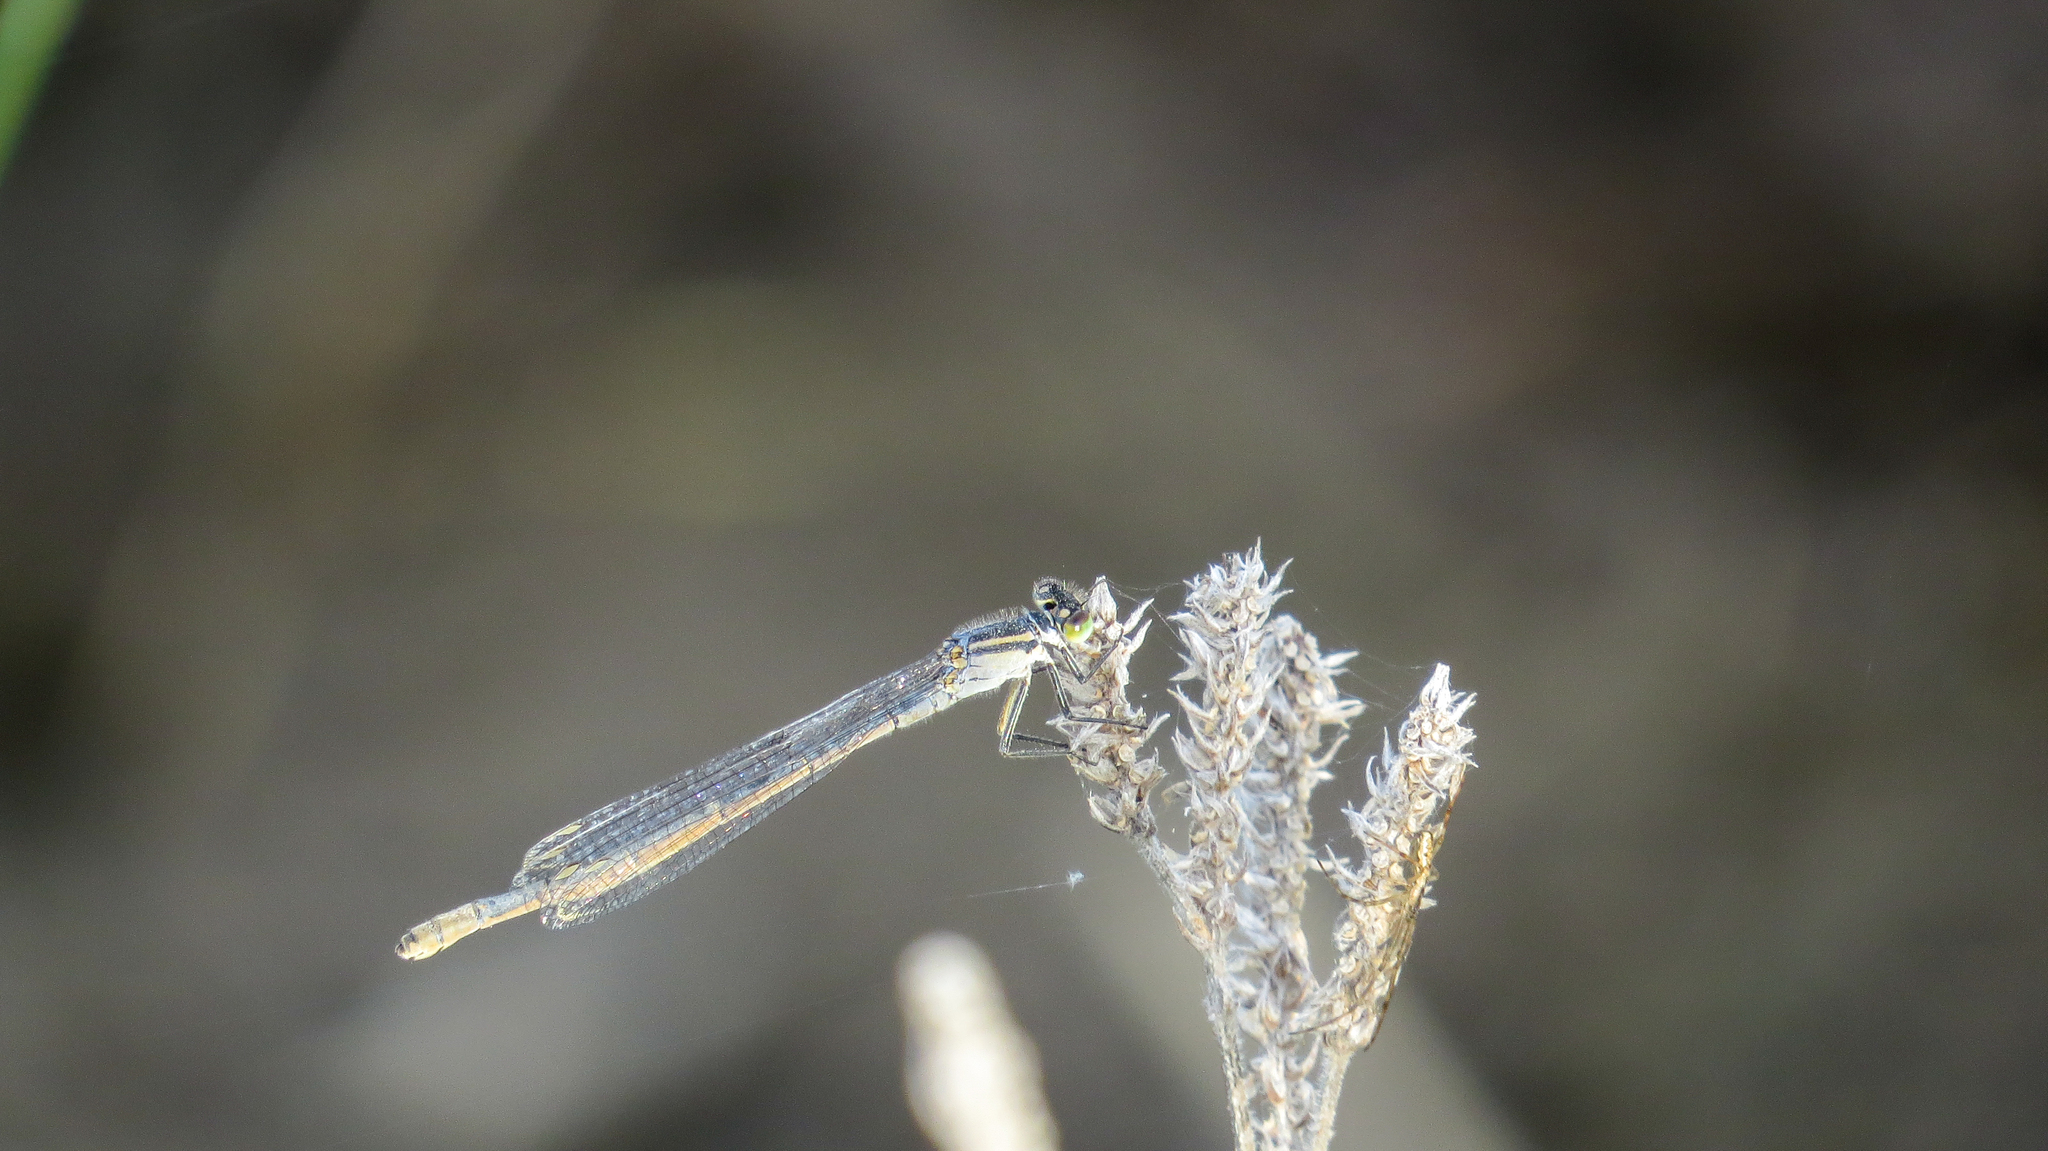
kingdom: Animalia
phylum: Arthropoda
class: Insecta
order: Odonata
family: Coenagrionidae
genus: Ischnura
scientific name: Ischnura heterosticta
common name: Common bluetail
